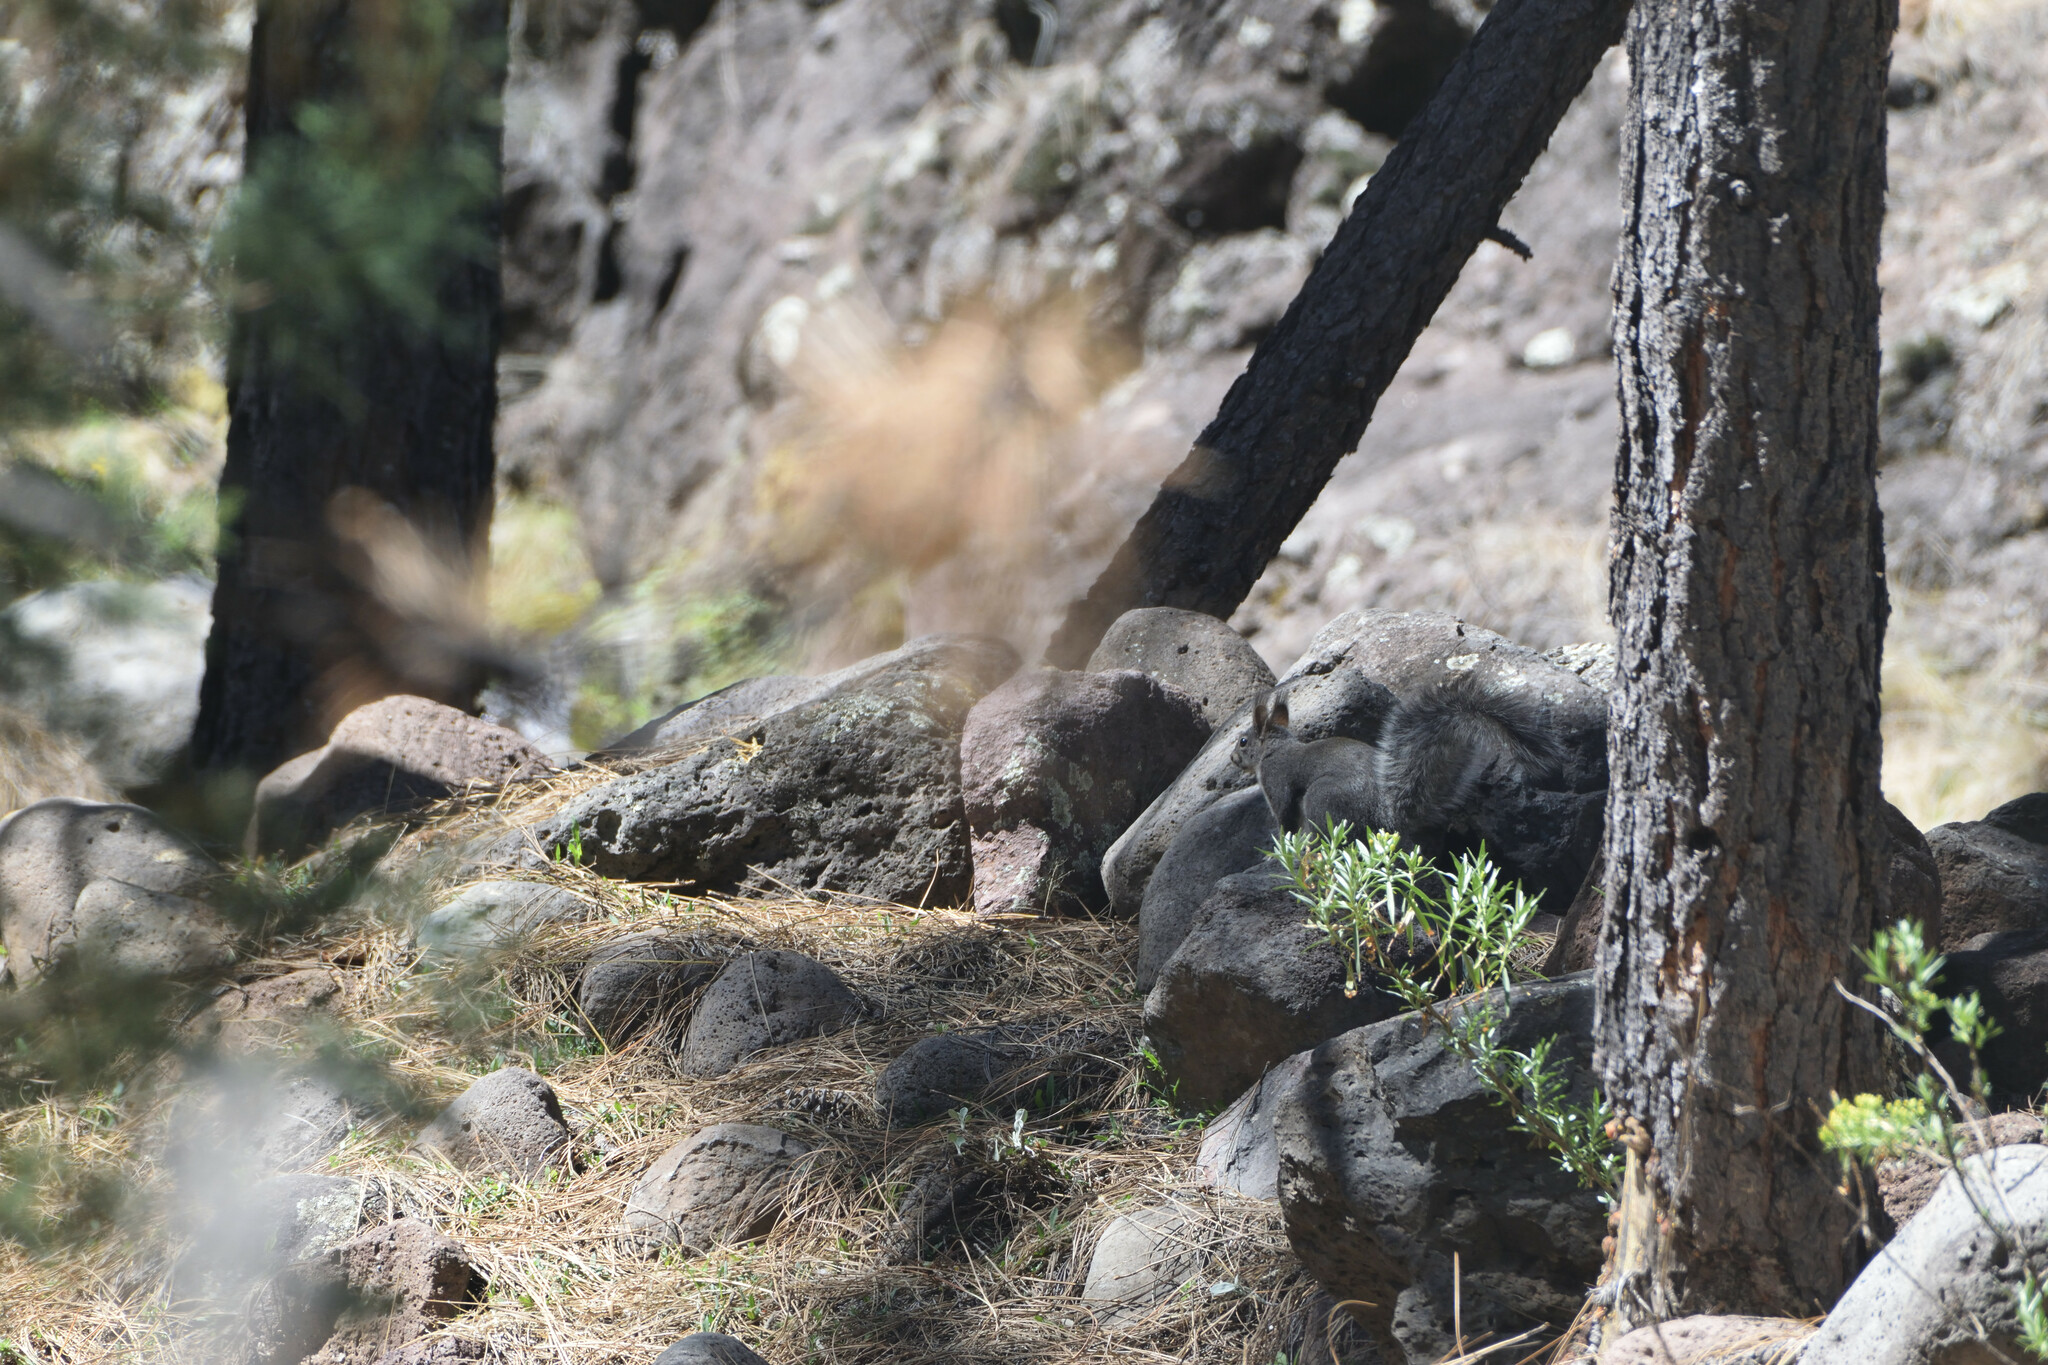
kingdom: Animalia
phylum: Chordata
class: Mammalia
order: Rodentia
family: Sciuridae
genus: Sciurus
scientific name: Sciurus aberti
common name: Abert's squirrel
